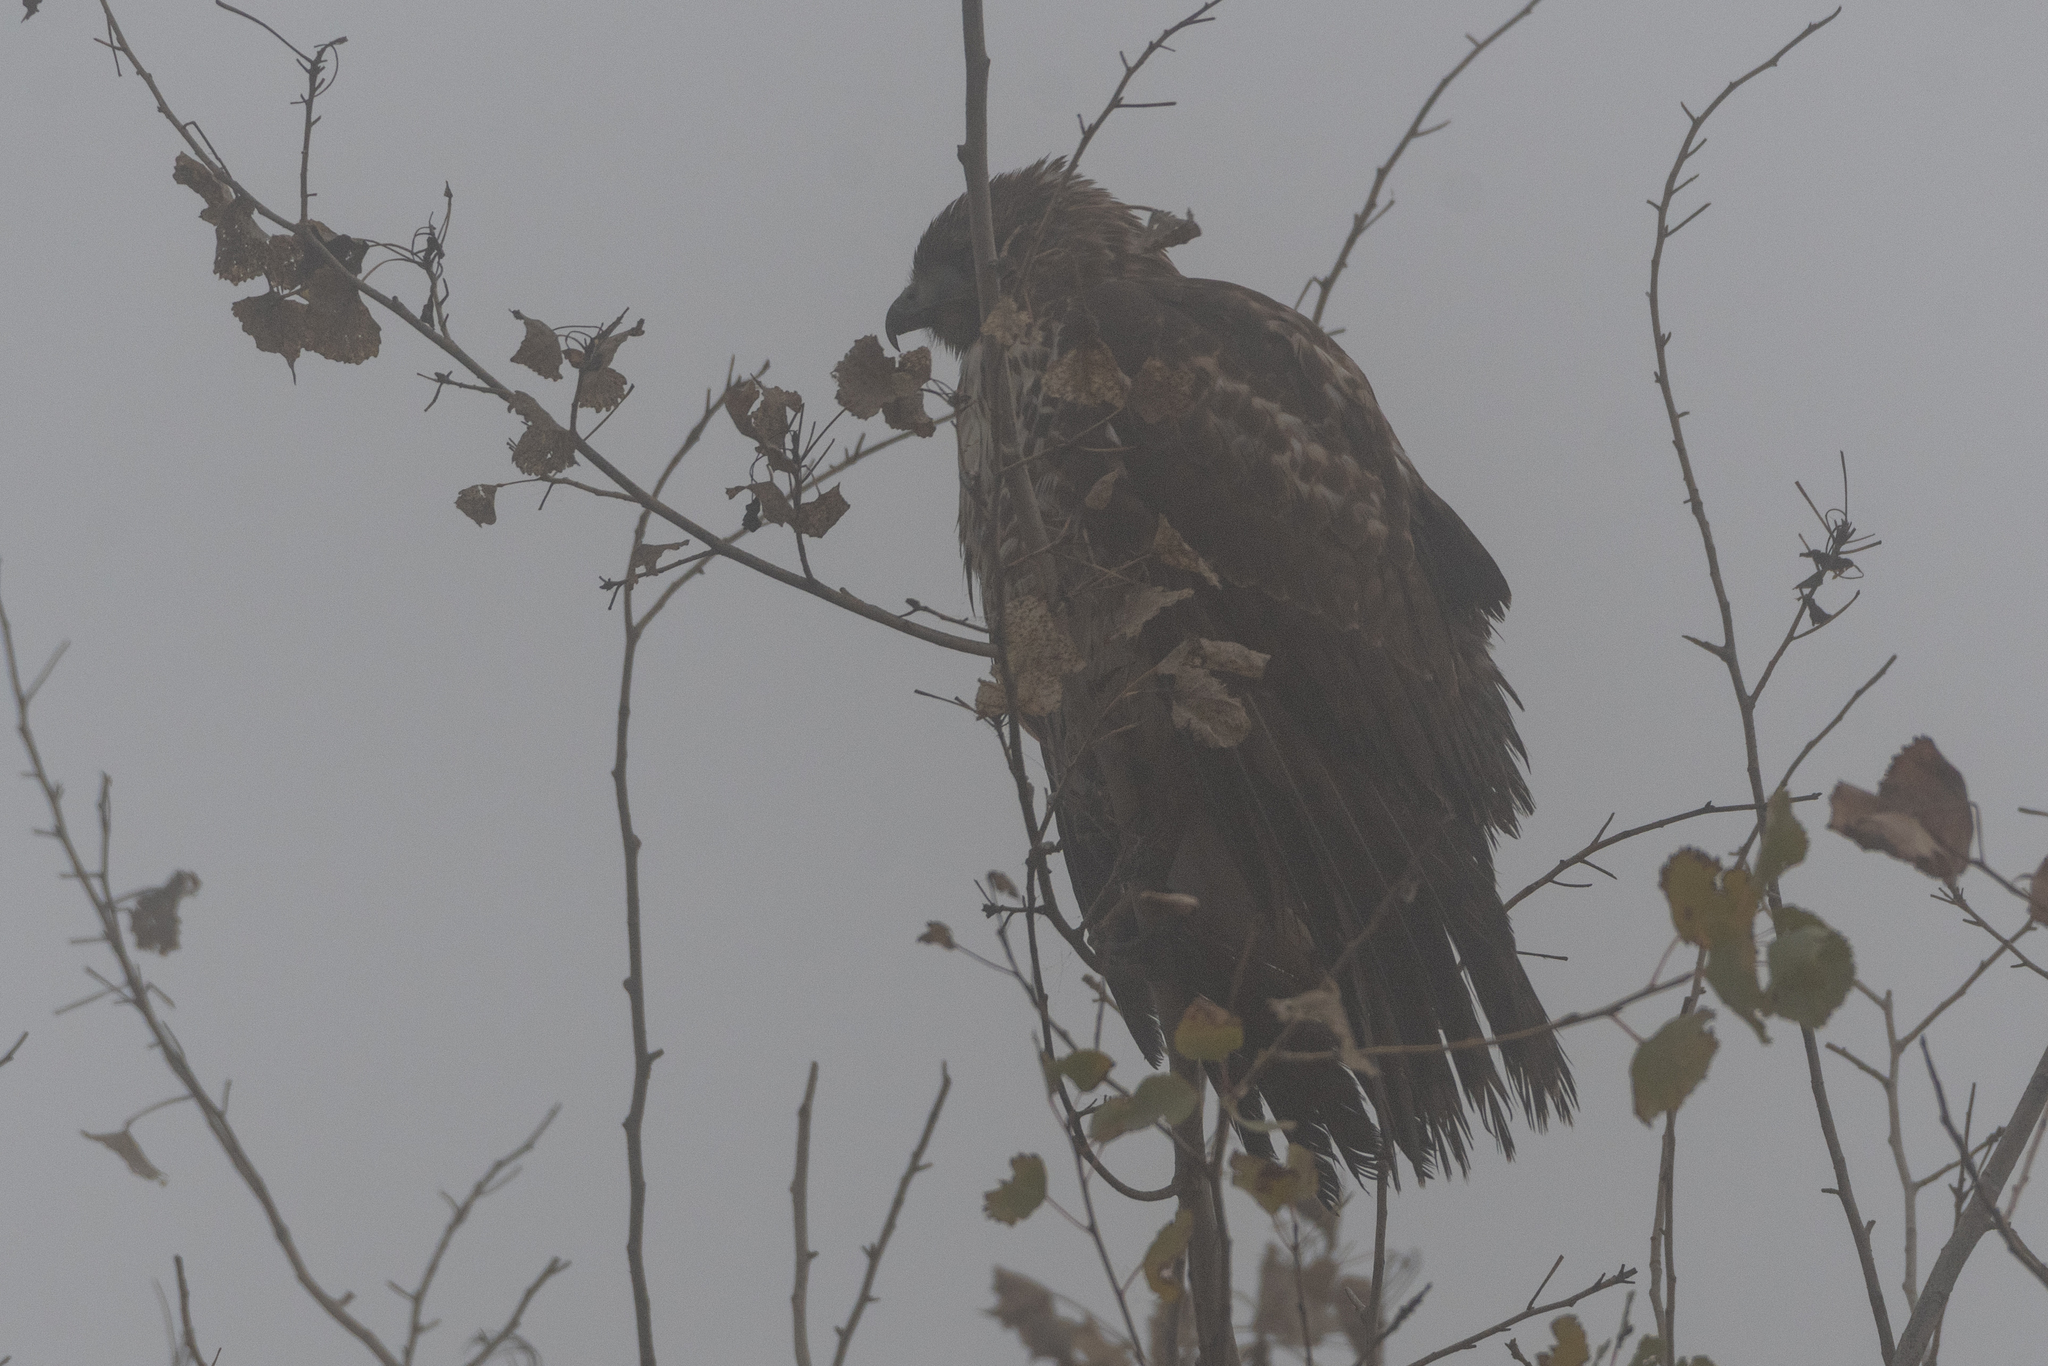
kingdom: Animalia
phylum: Chordata
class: Aves
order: Accipitriformes
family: Accipitridae
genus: Buteo
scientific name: Buteo jamaicensis
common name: Red-tailed hawk
